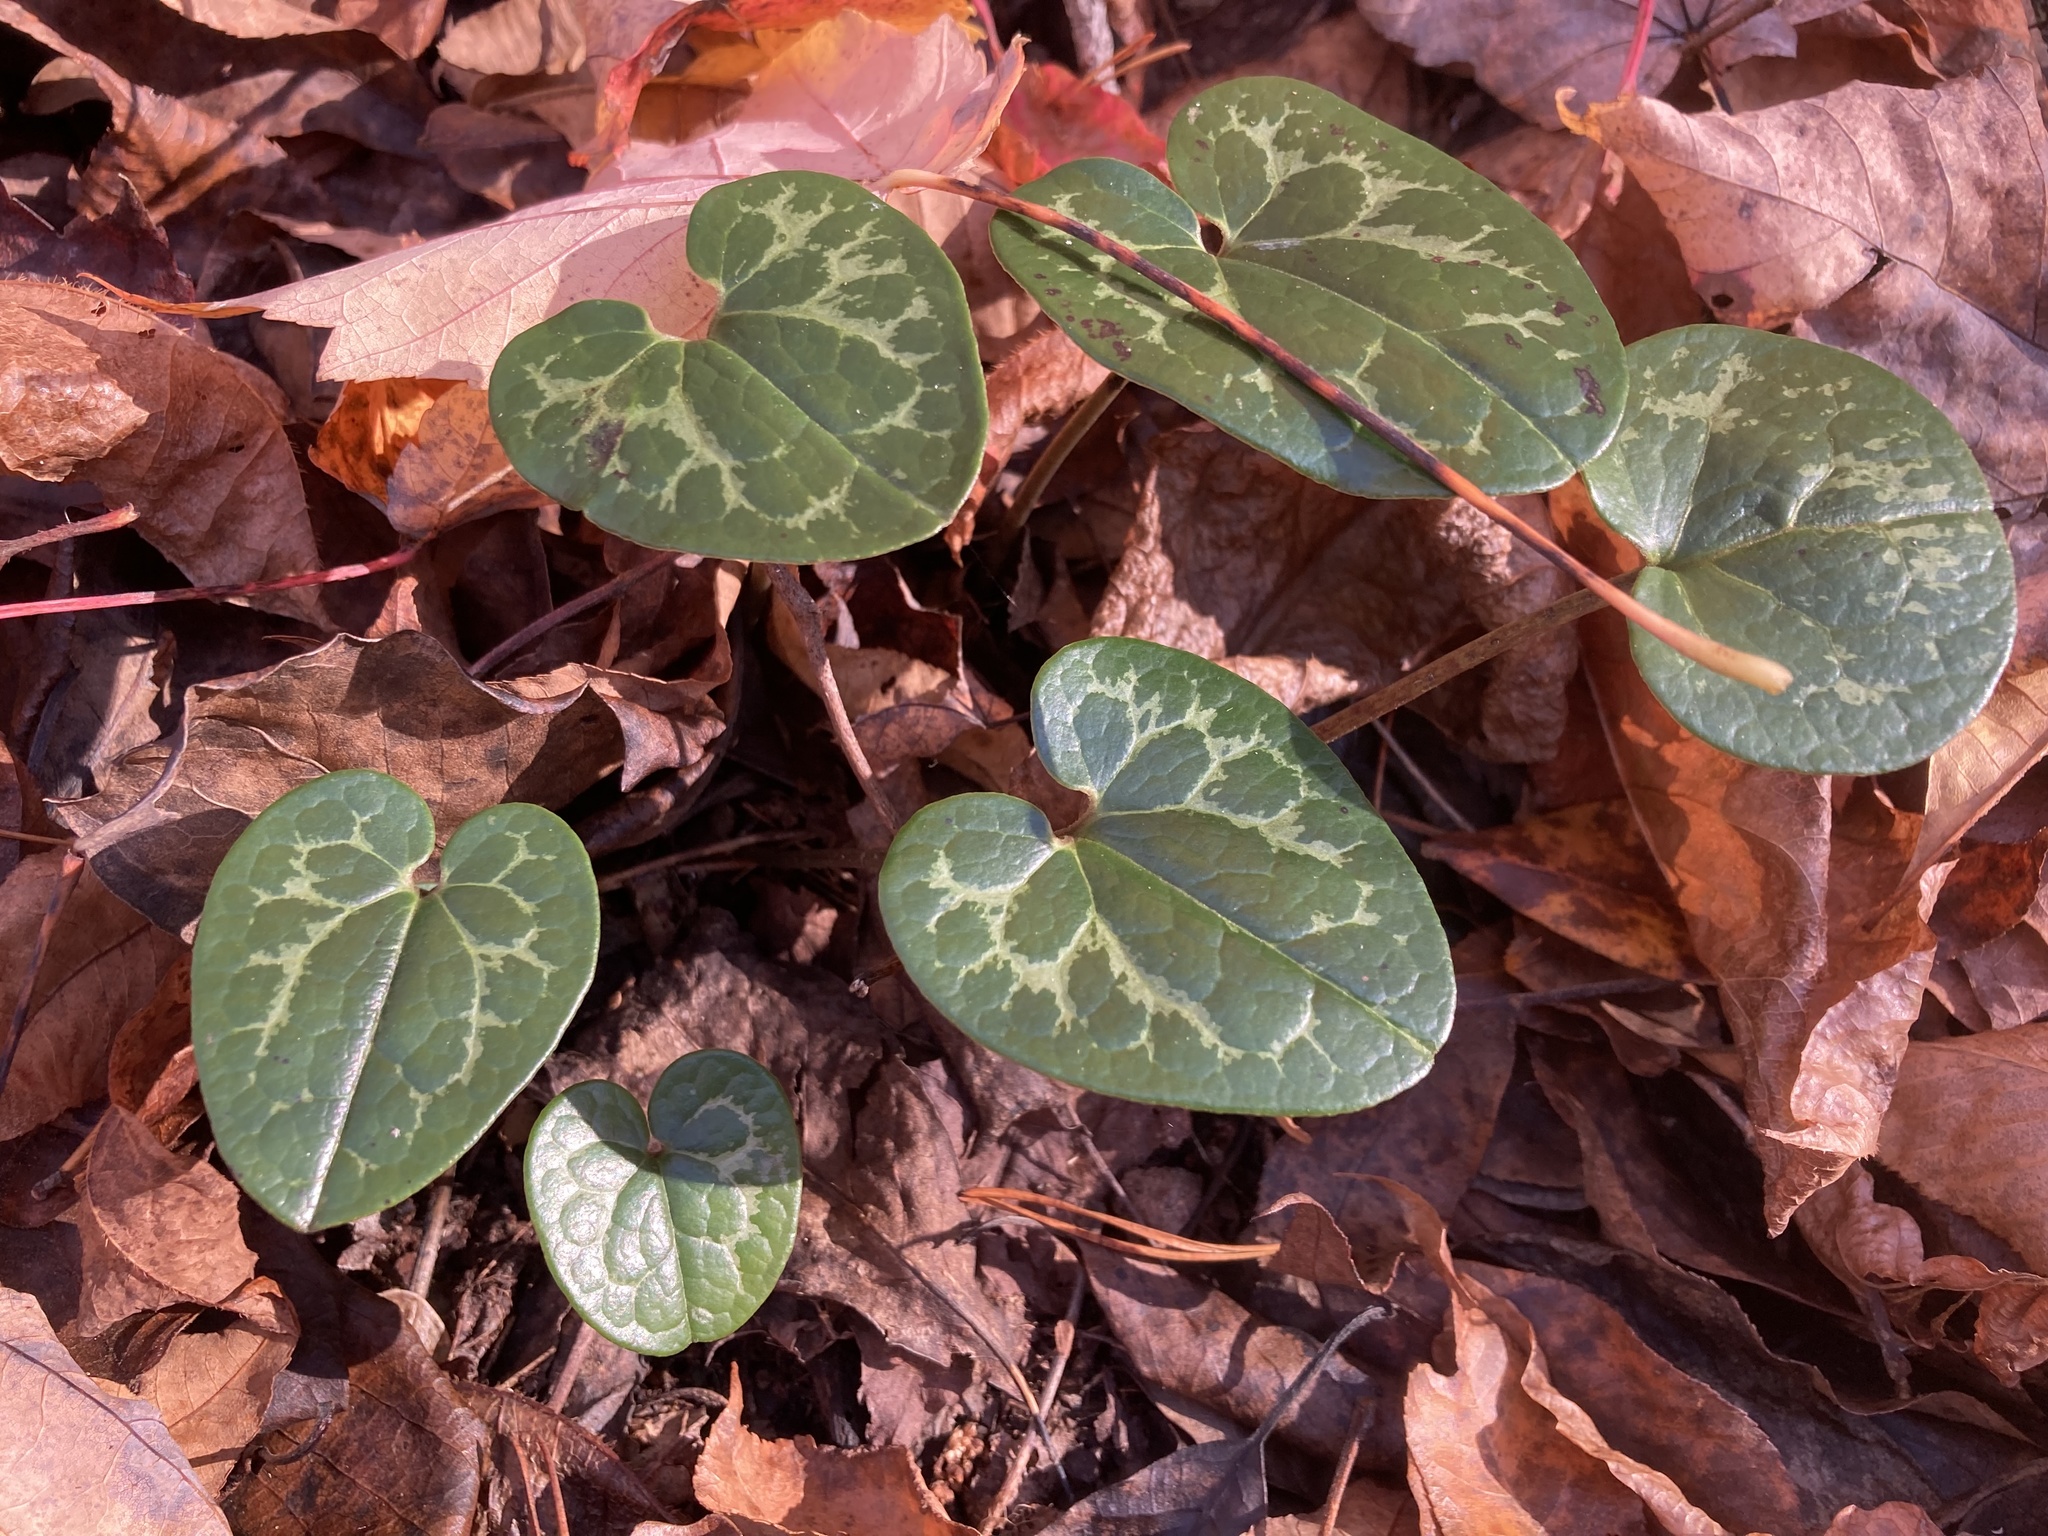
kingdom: Plantae
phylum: Tracheophyta
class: Magnoliopsida
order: Piperales
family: Aristolochiaceae
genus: Hexastylis
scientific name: Hexastylis shuttleworthii
